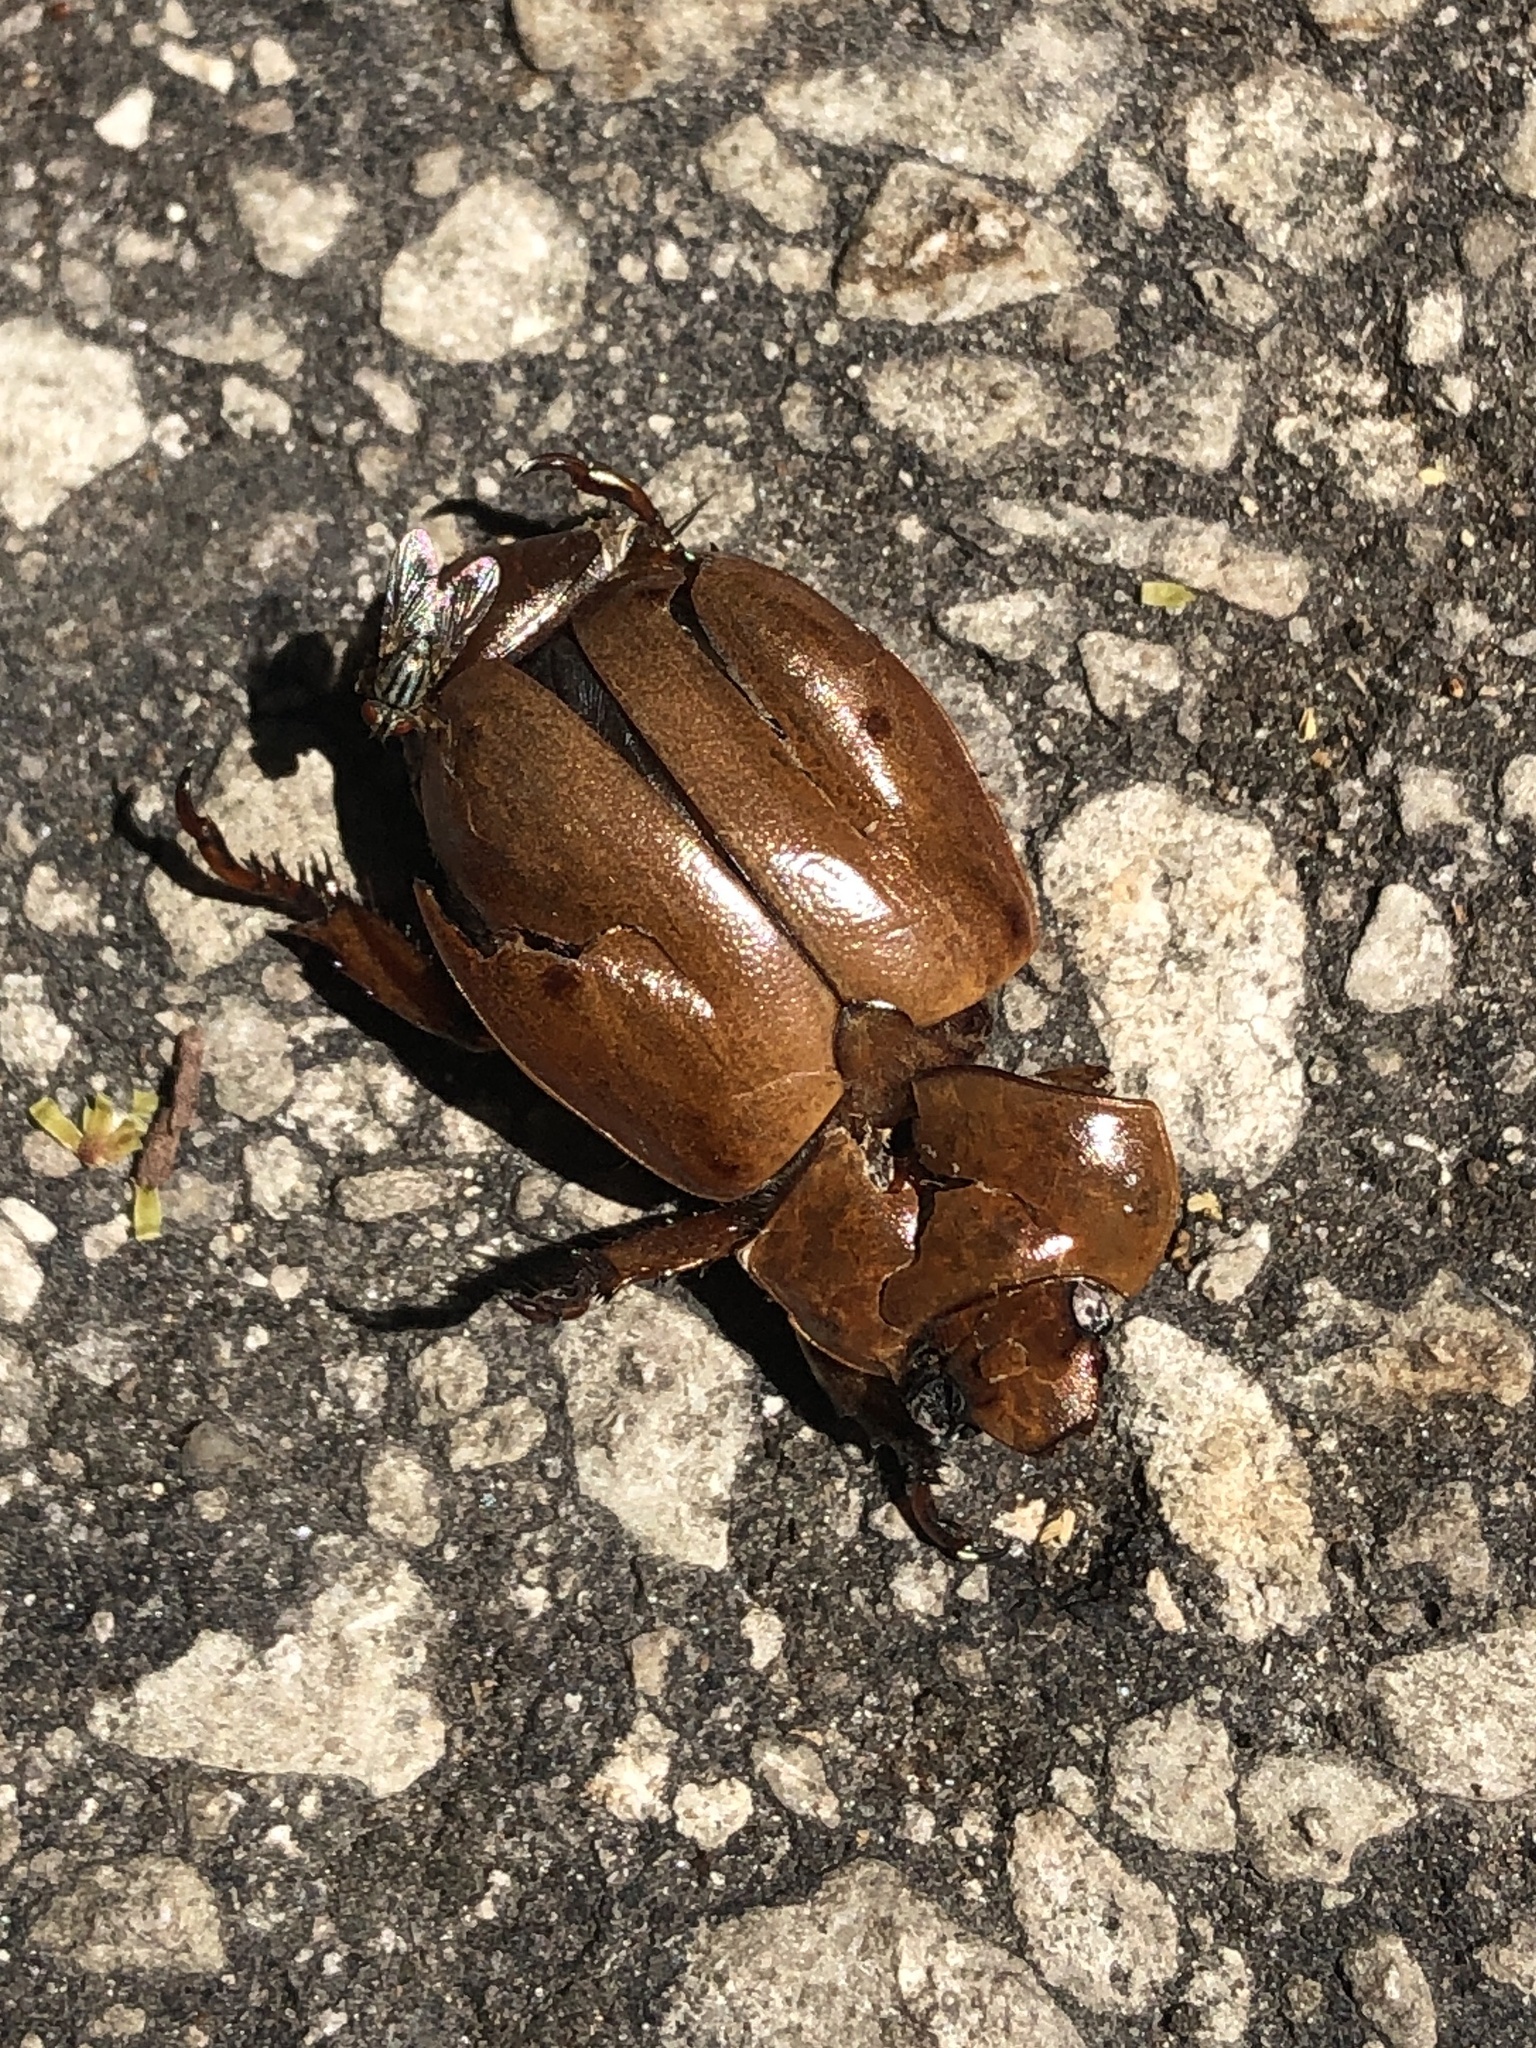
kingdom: Animalia
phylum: Arthropoda
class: Insecta
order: Coleoptera
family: Scarabaeidae
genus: Pelidnota
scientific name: Pelidnota punctata
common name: Grapevine beetle
